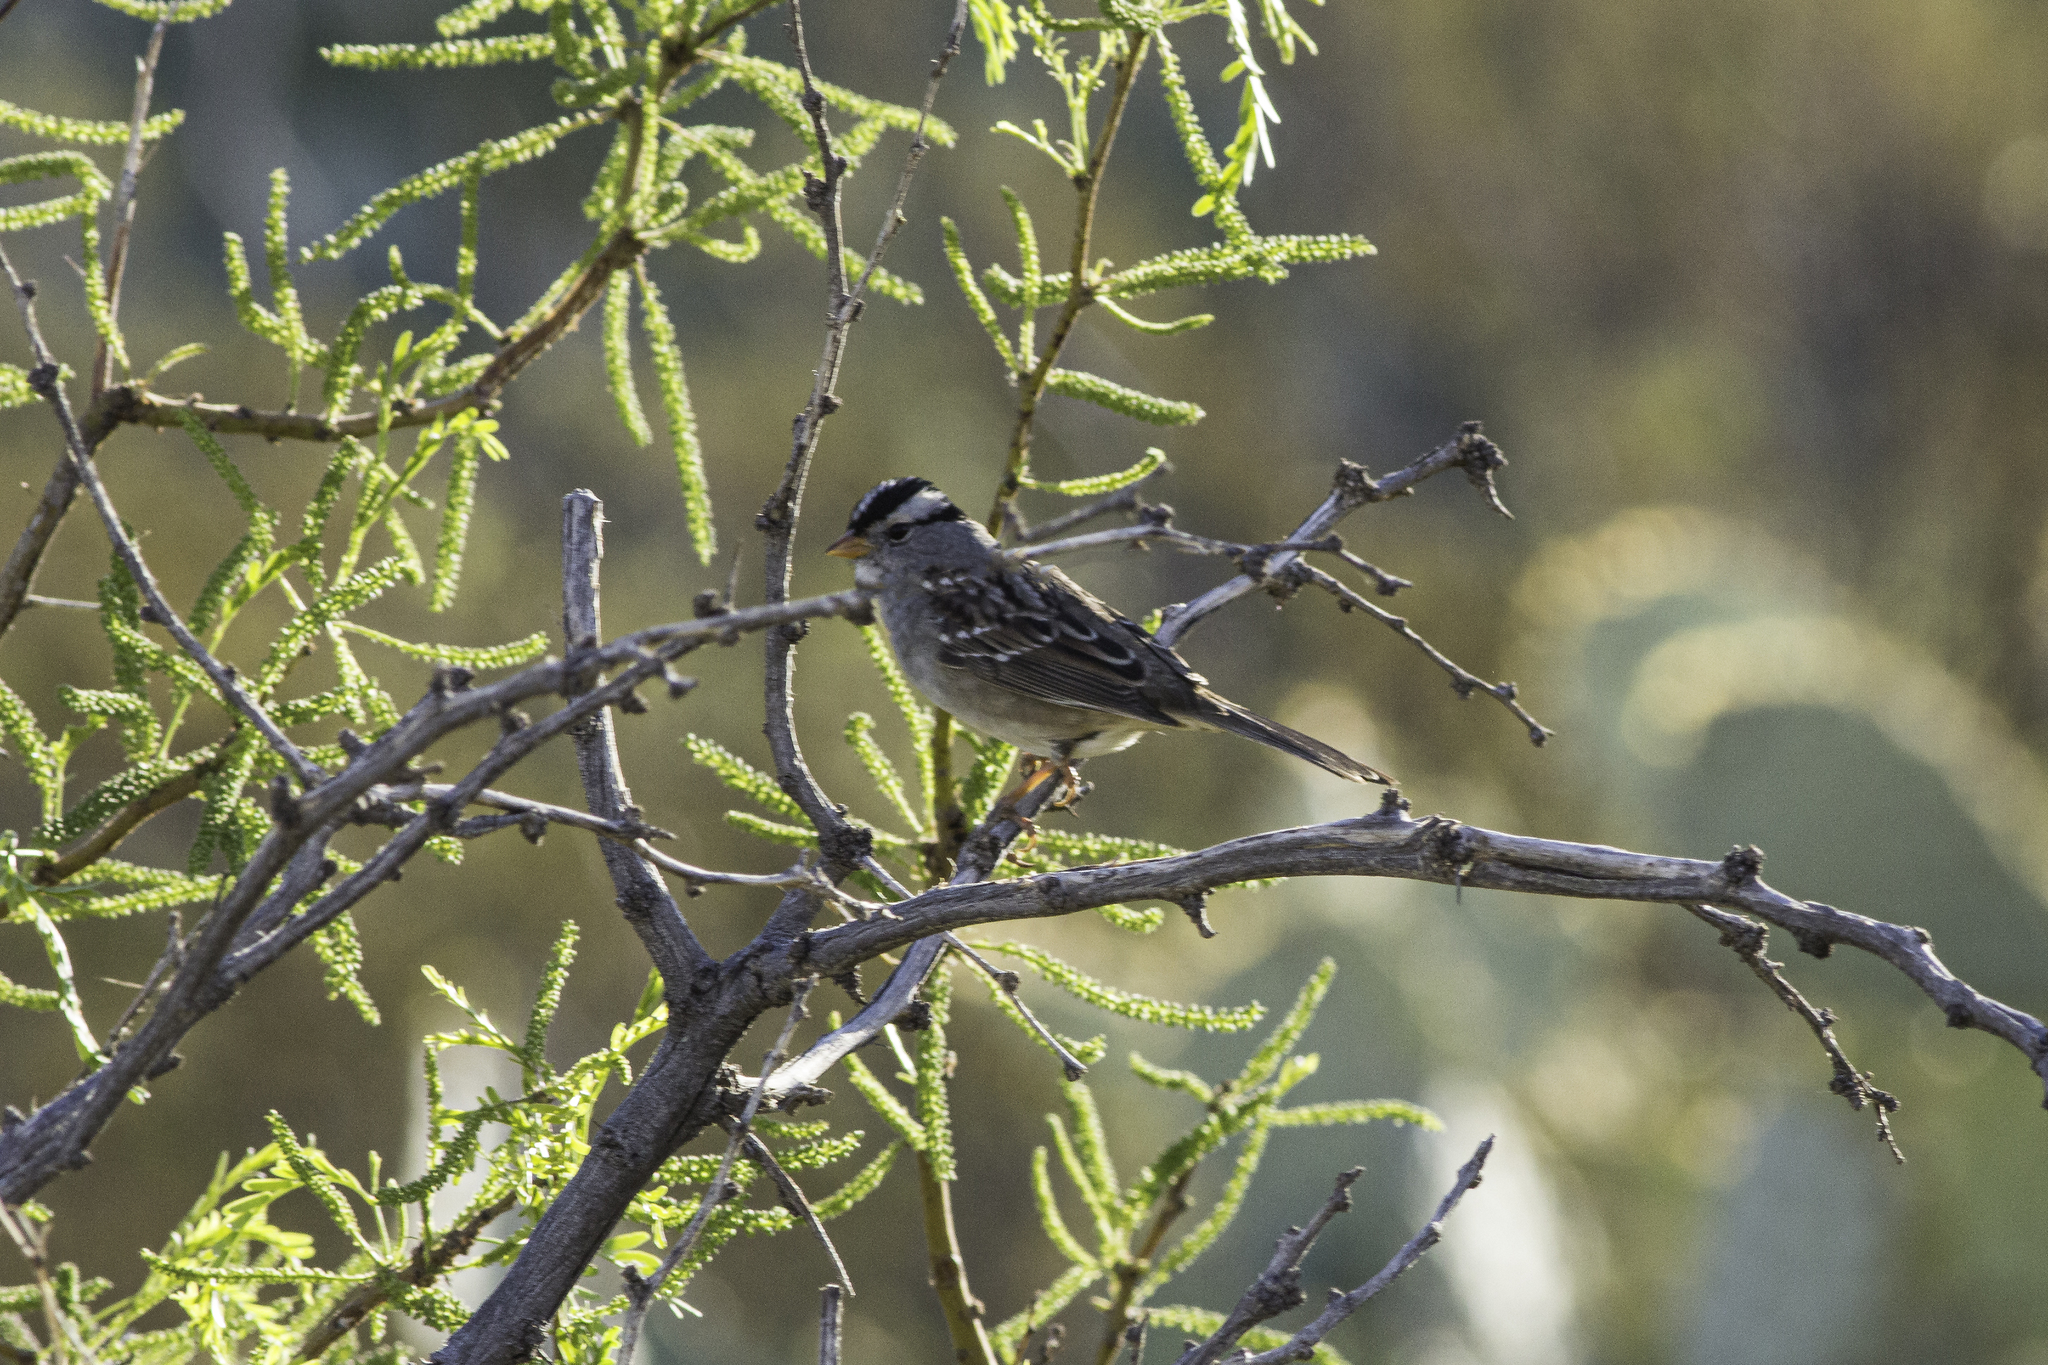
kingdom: Animalia
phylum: Chordata
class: Aves
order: Passeriformes
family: Passerellidae
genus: Zonotrichia
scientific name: Zonotrichia leucophrys
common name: White-crowned sparrow
